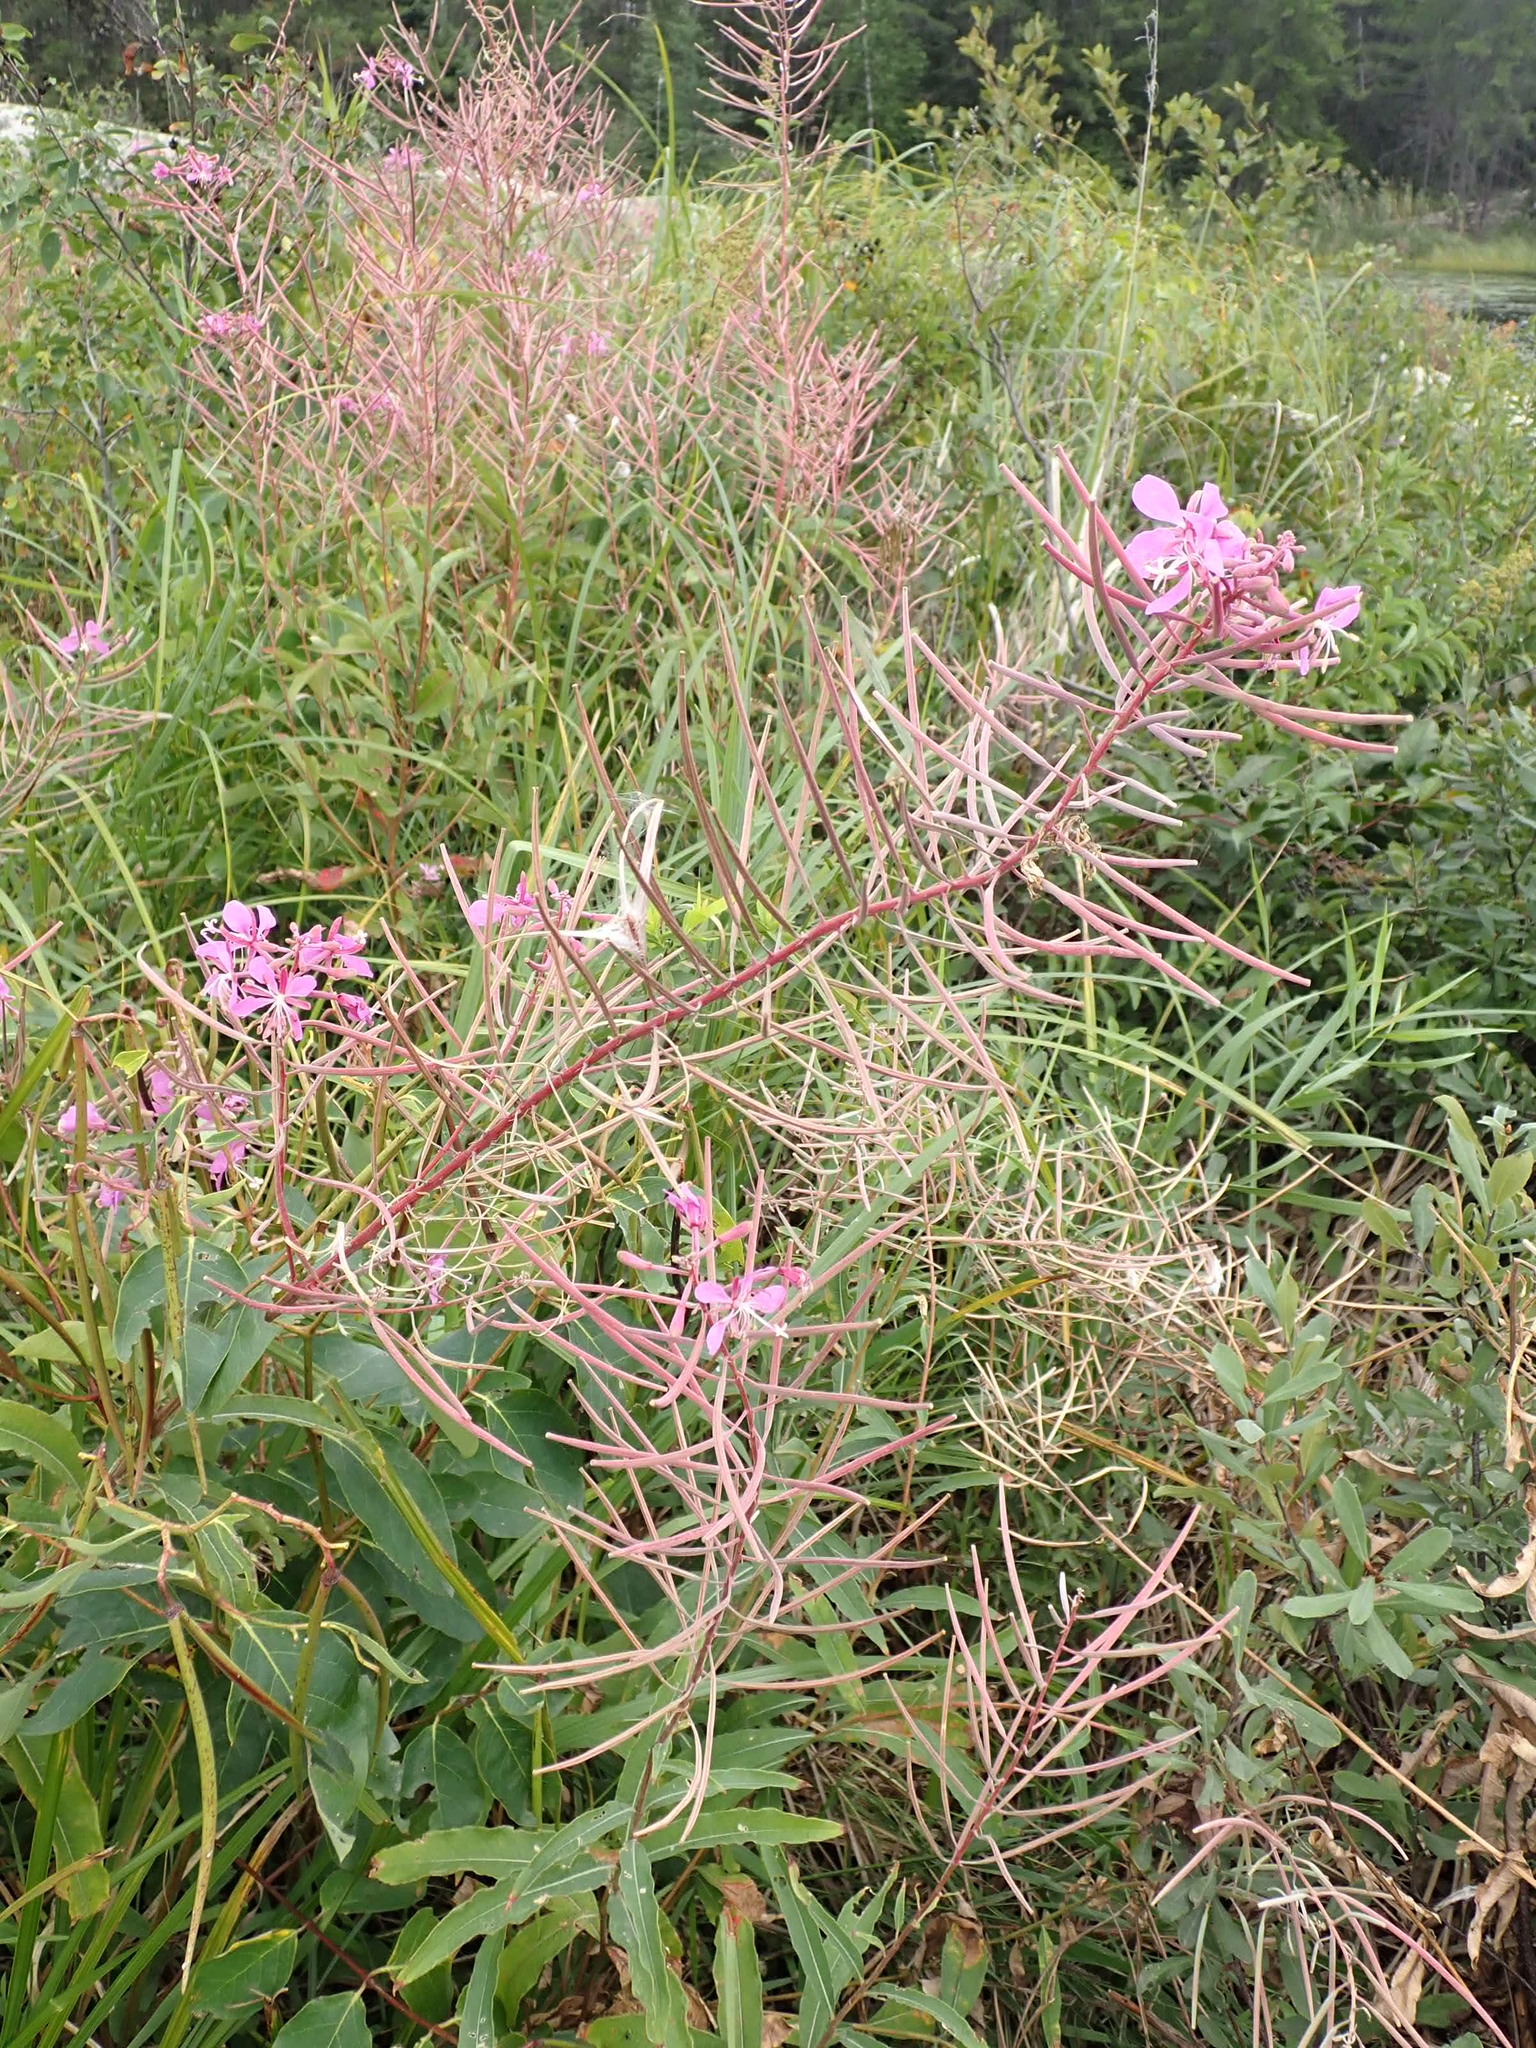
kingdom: Plantae
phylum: Tracheophyta
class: Magnoliopsida
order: Myrtales
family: Onagraceae
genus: Chamaenerion
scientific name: Chamaenerion angustifolium
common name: Fireweed
